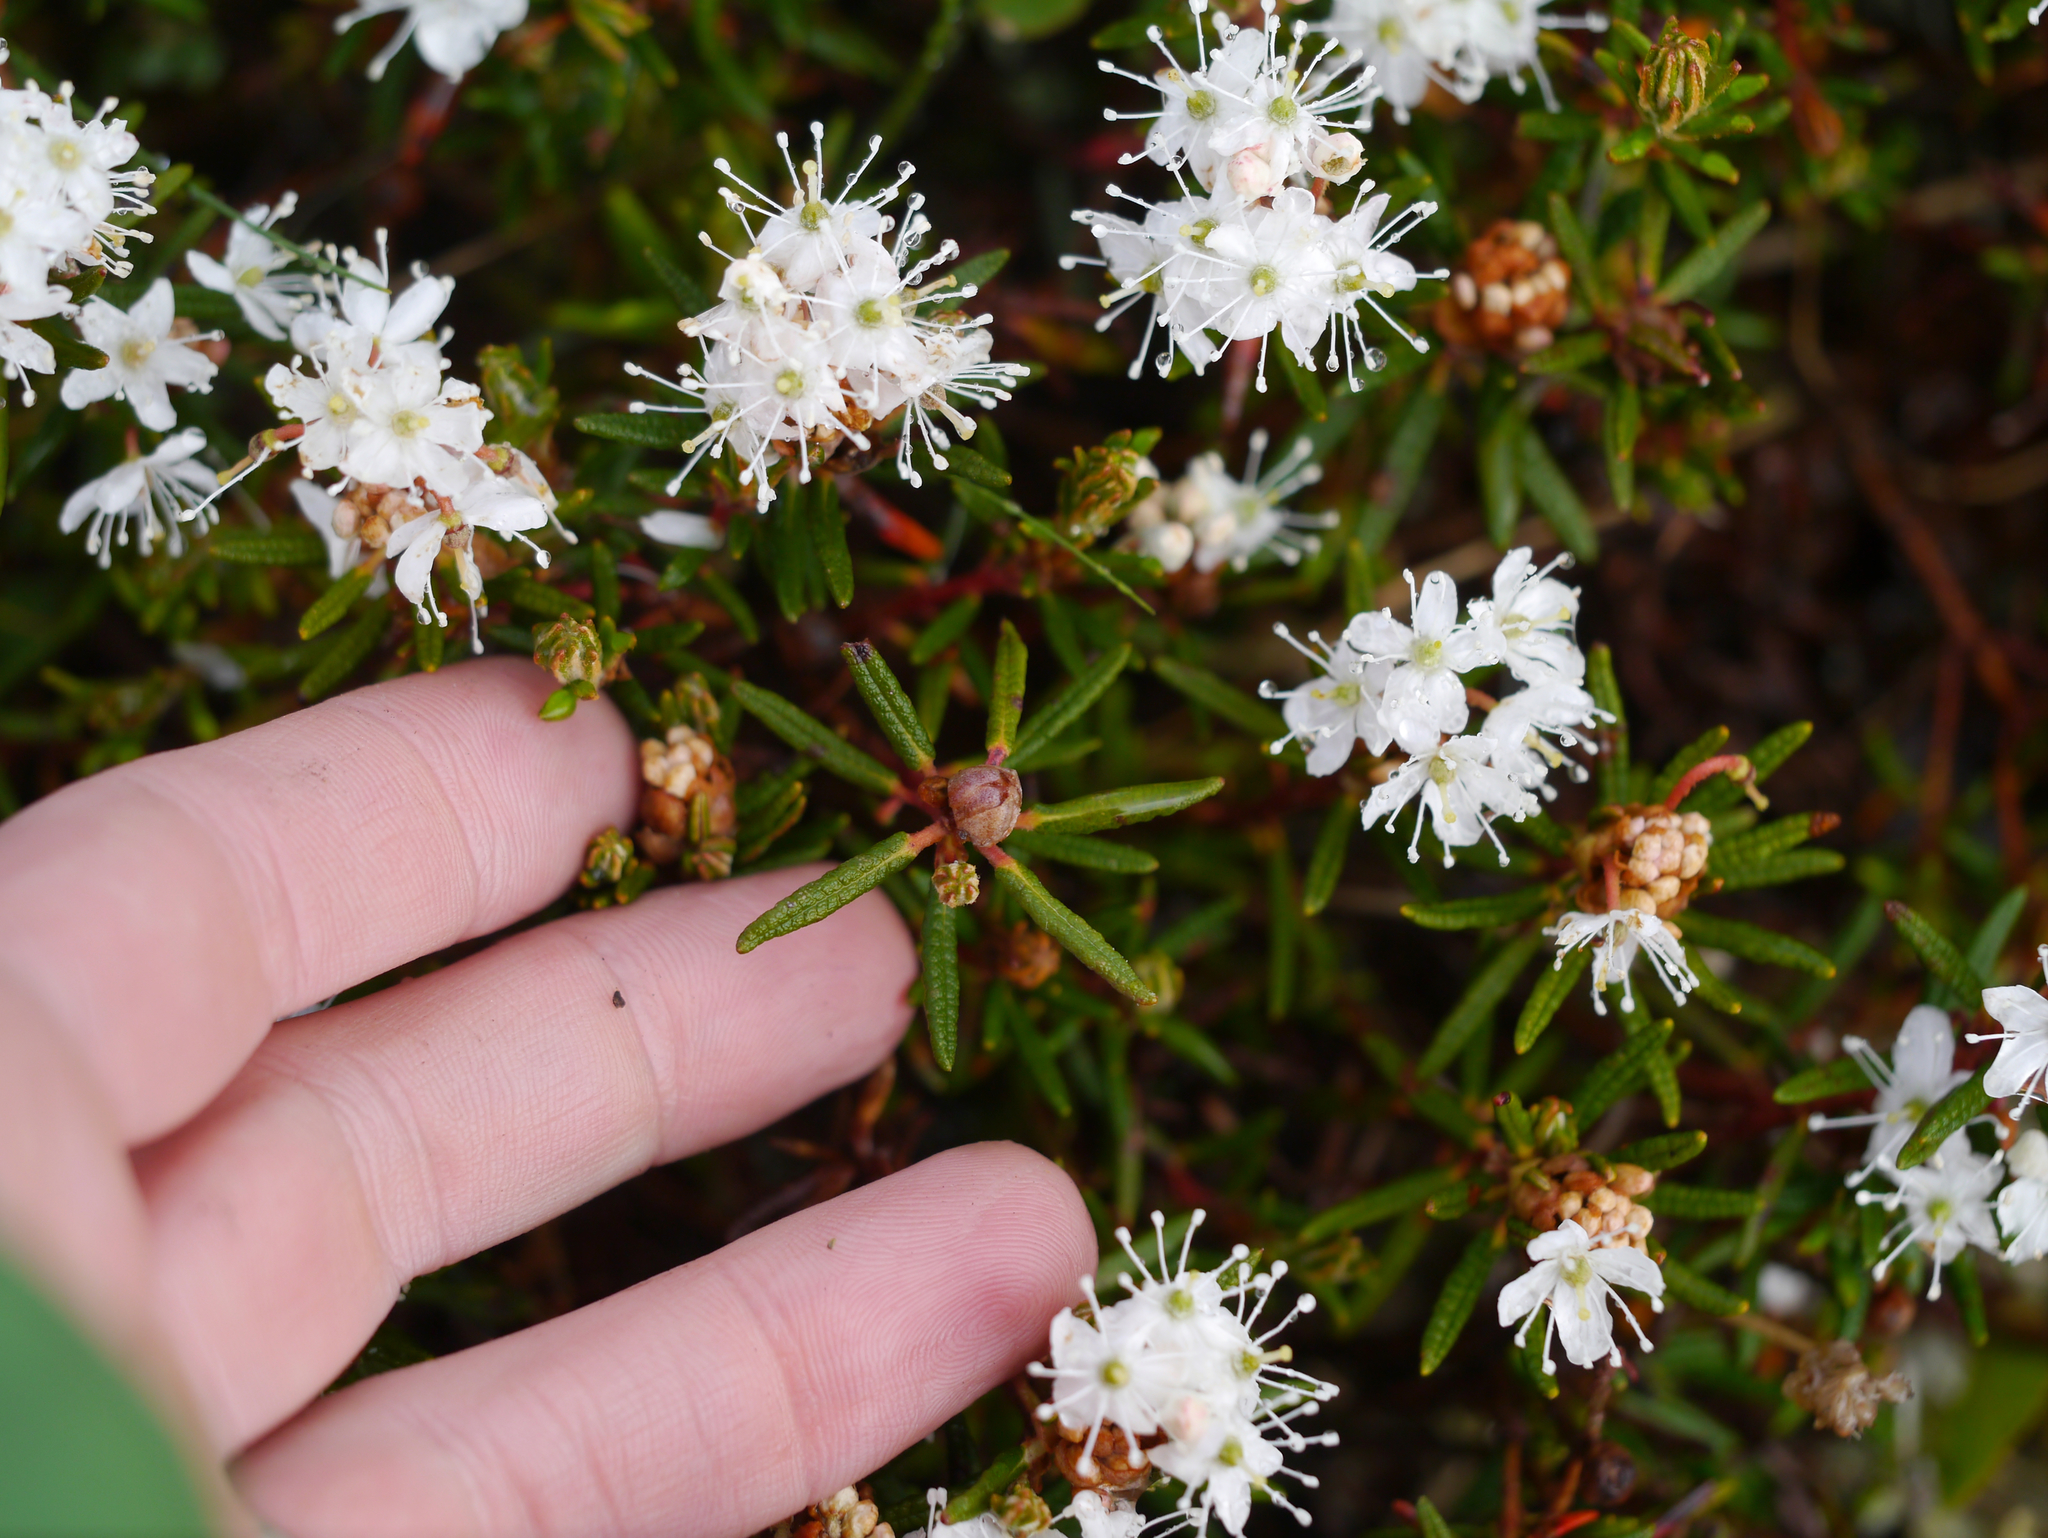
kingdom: Plantae
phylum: Tracheophyta
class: Magnoliopsida
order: Ericales
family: Ericaceae
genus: Rhododendron
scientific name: Rhododendron tomentosum
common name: Marsh labrador tea
